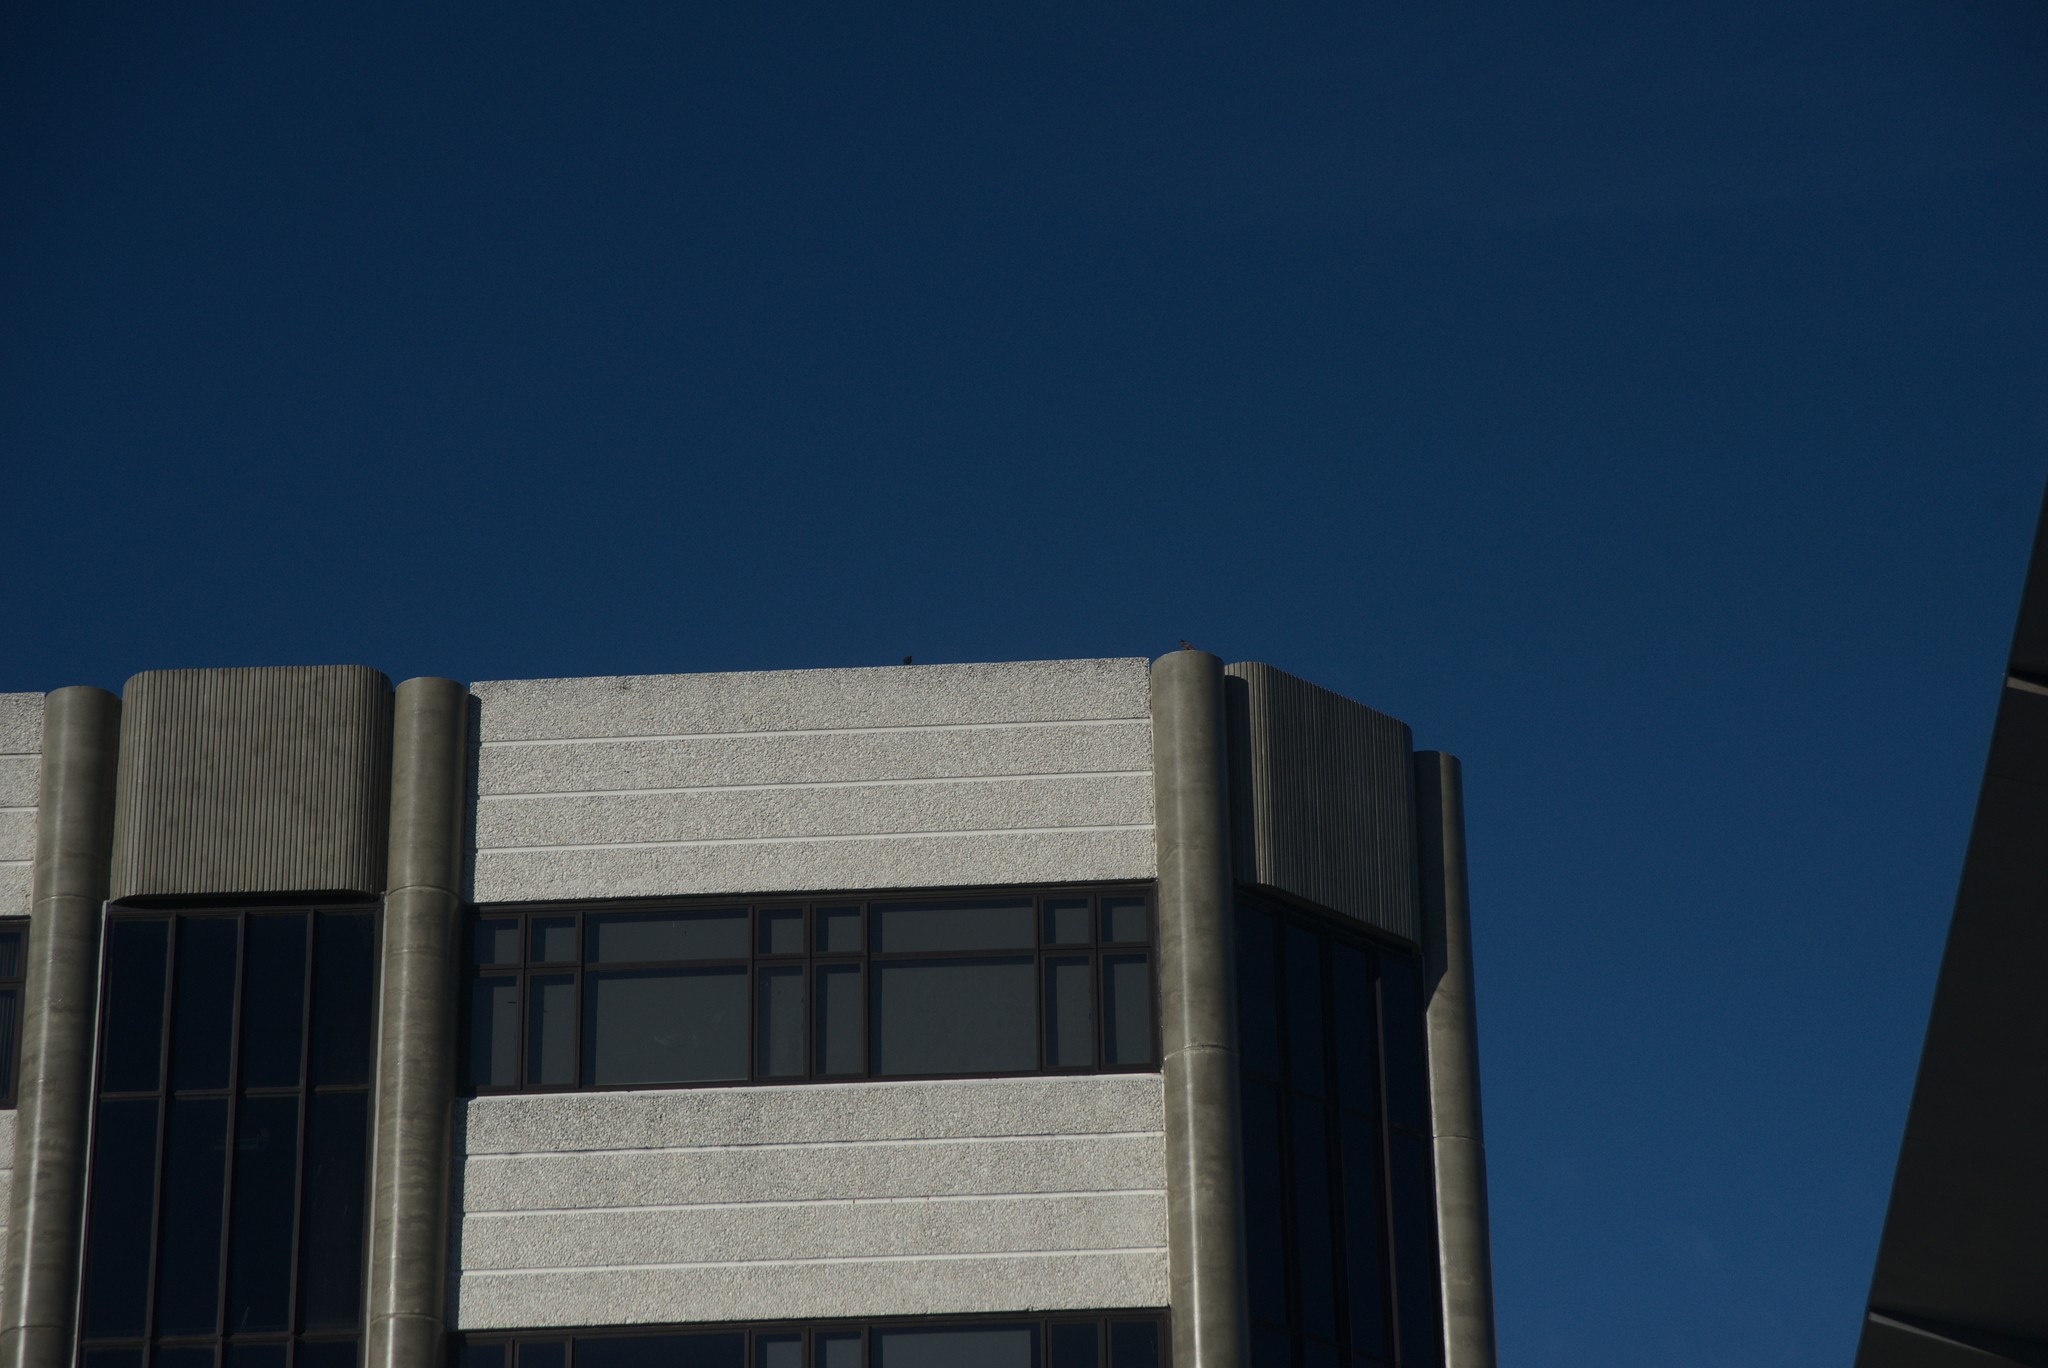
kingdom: Animalia
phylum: Chordata
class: Aves
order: Columbiformes
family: Columbidae
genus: Columba
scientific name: Columba livia
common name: Rock pigeon
